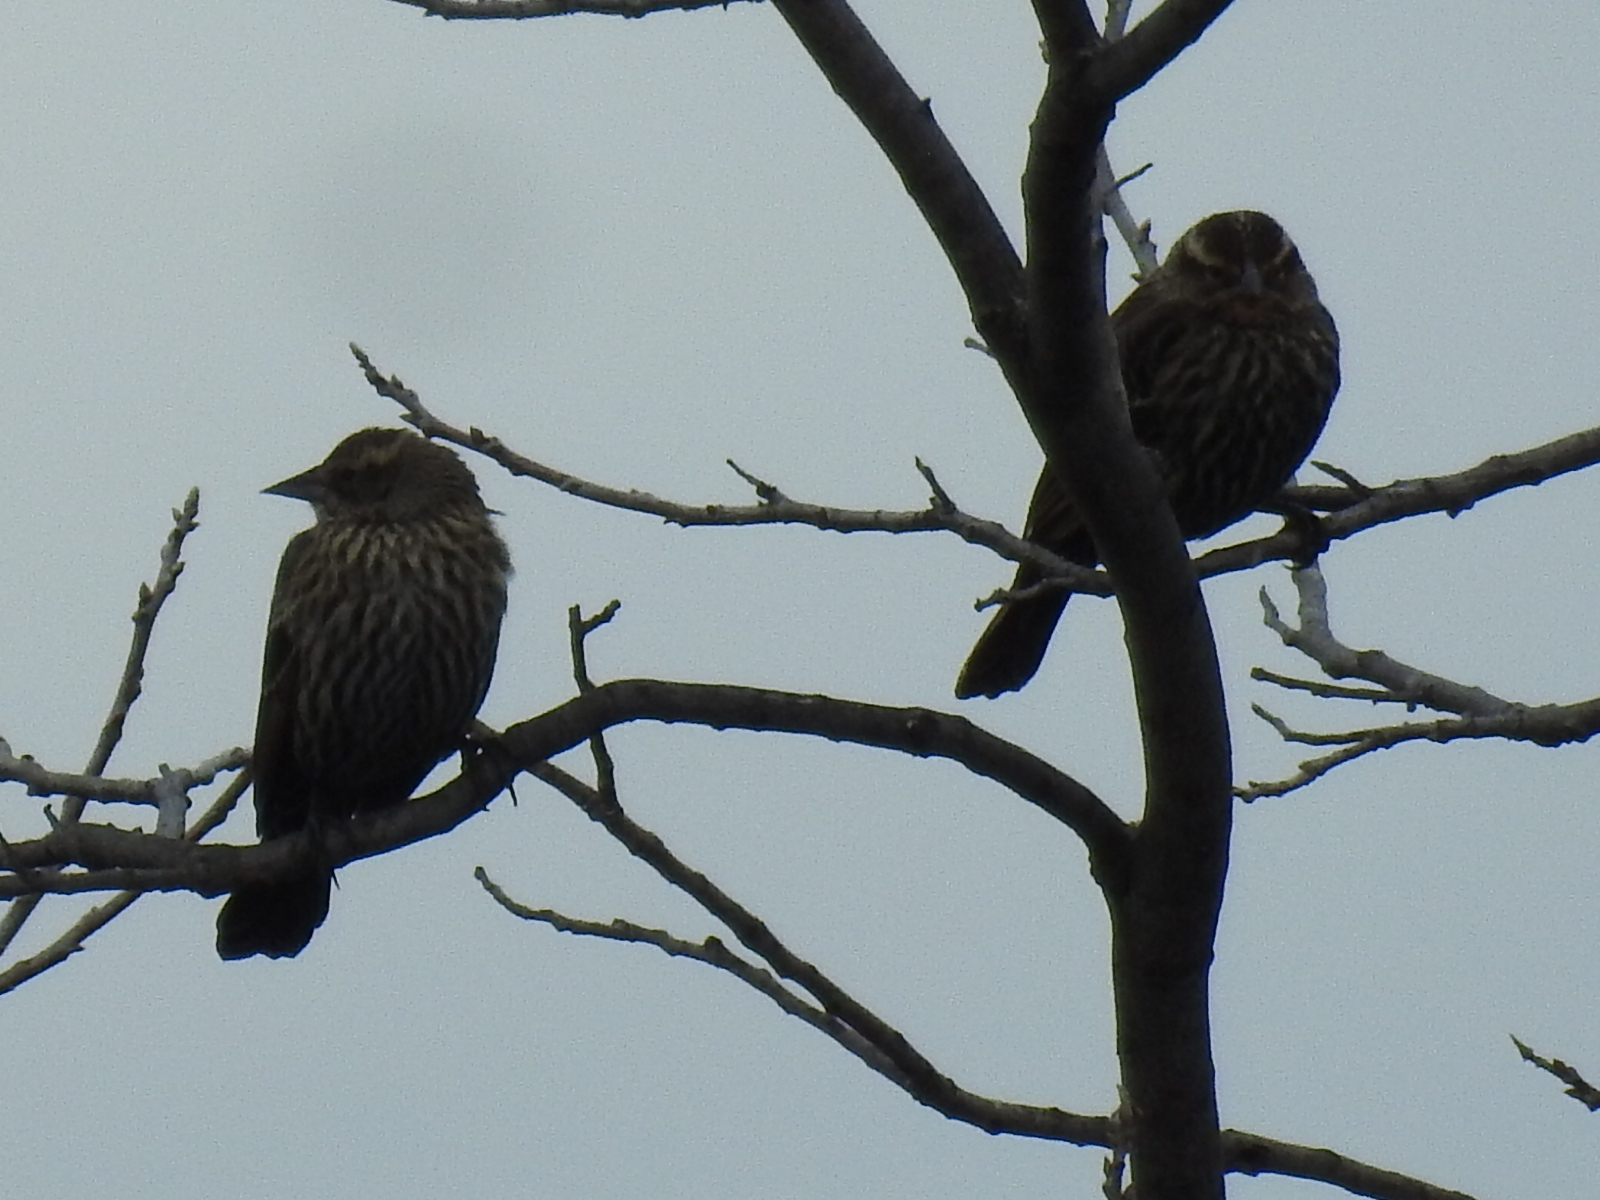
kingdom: Animalia
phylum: Chordata
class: Aves
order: Passeriformes
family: Icteridae
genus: Agelaius
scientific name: Agelaius phoeniceus
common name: Red-winged blackbird
